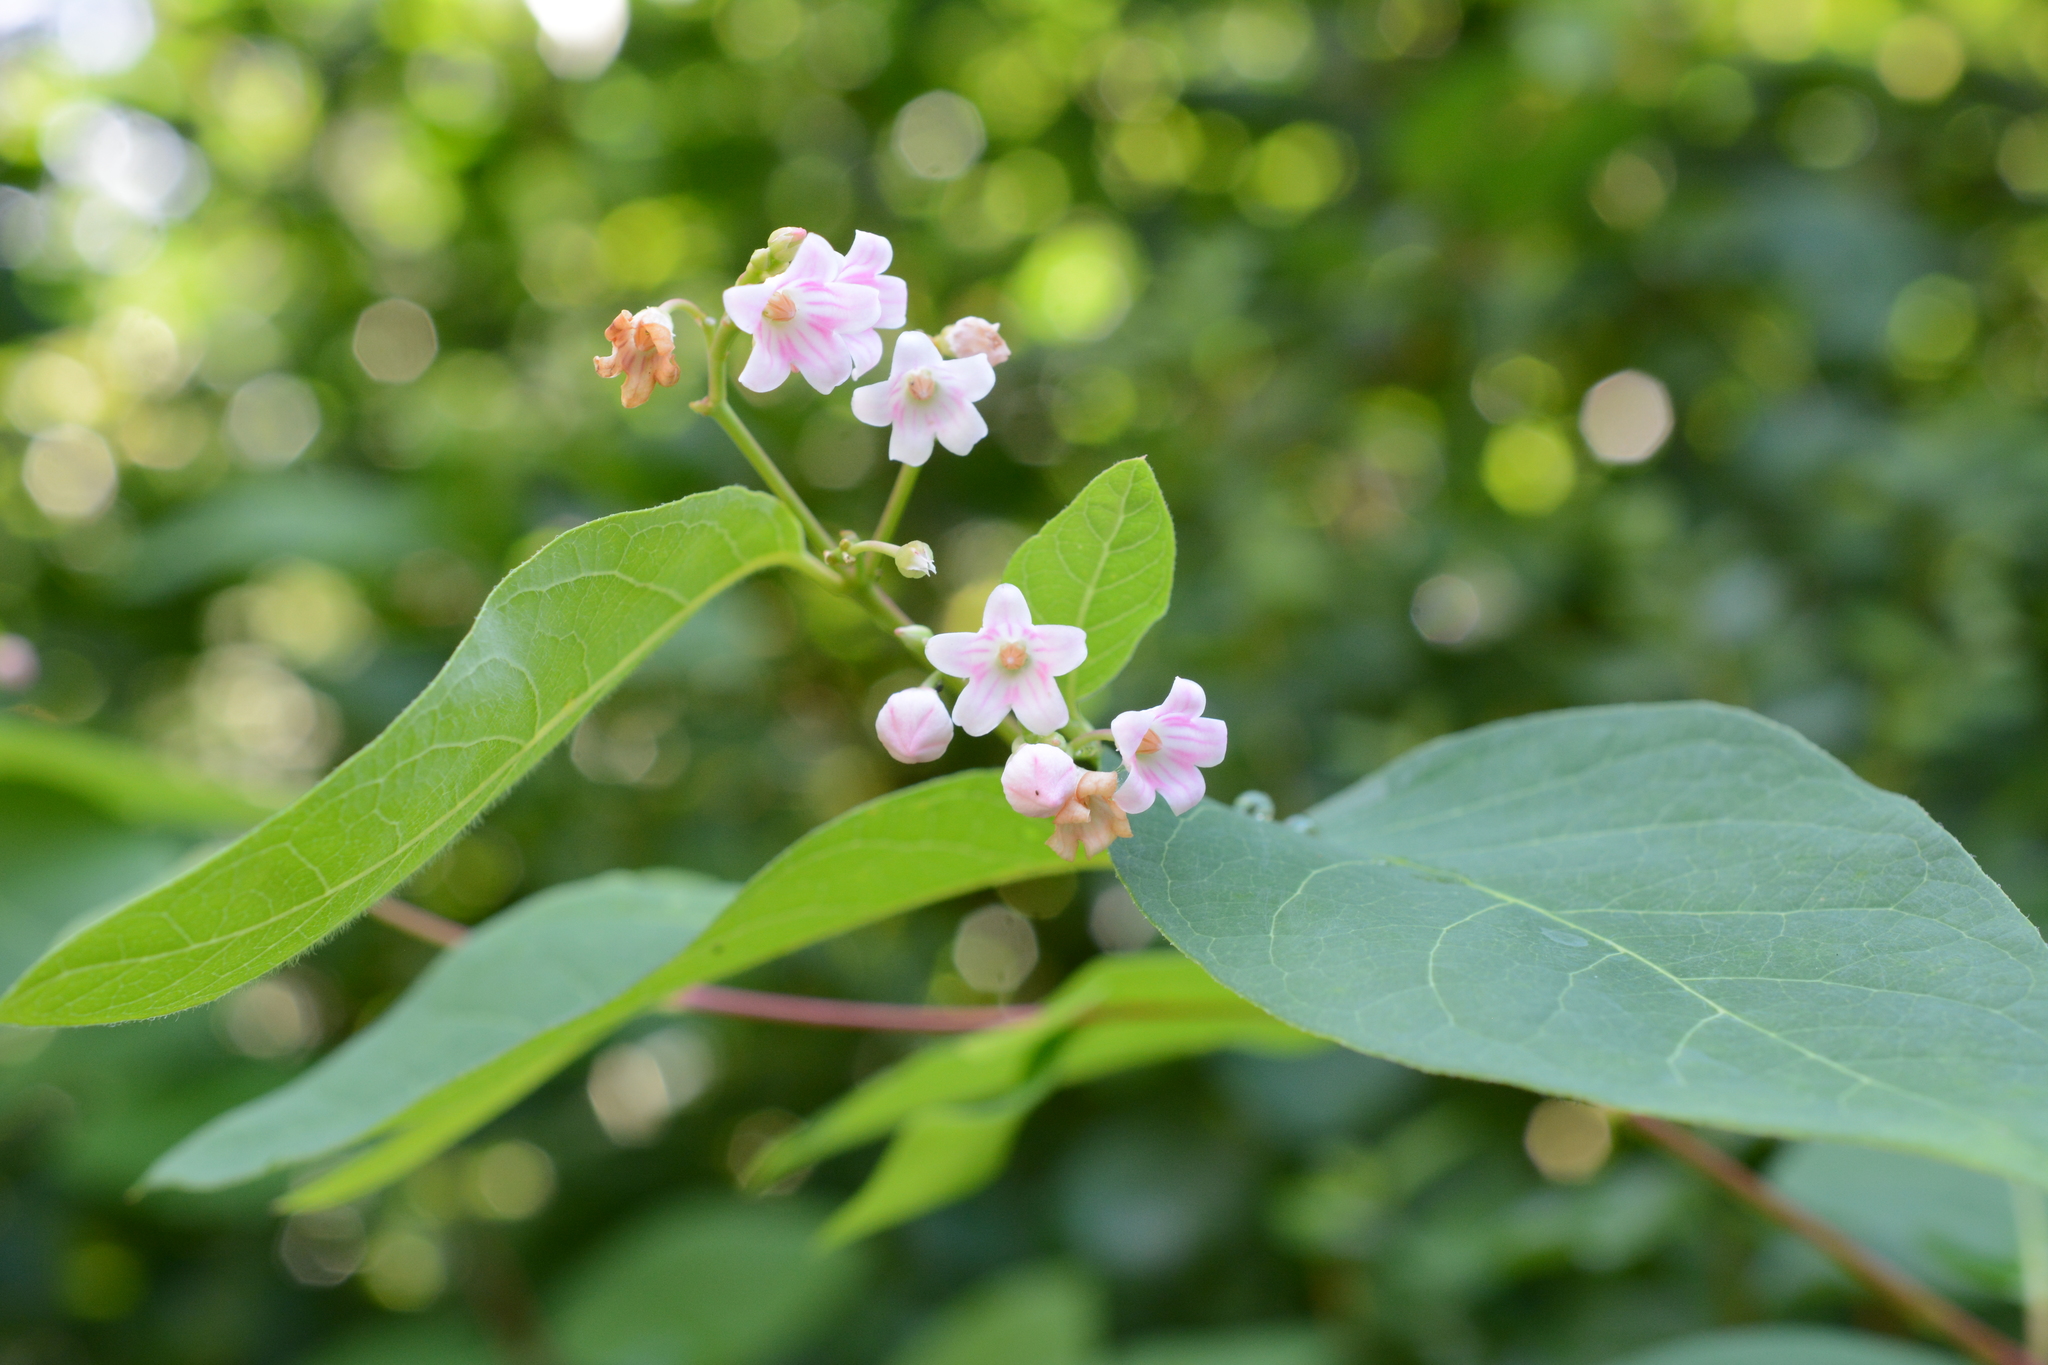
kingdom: Plantae
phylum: Tracheophyta
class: Magnoliopsida
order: Gentianales
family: Apocynaceae
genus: Apocynum
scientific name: Apocynum androsaemifolium
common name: Spreading dogbane
